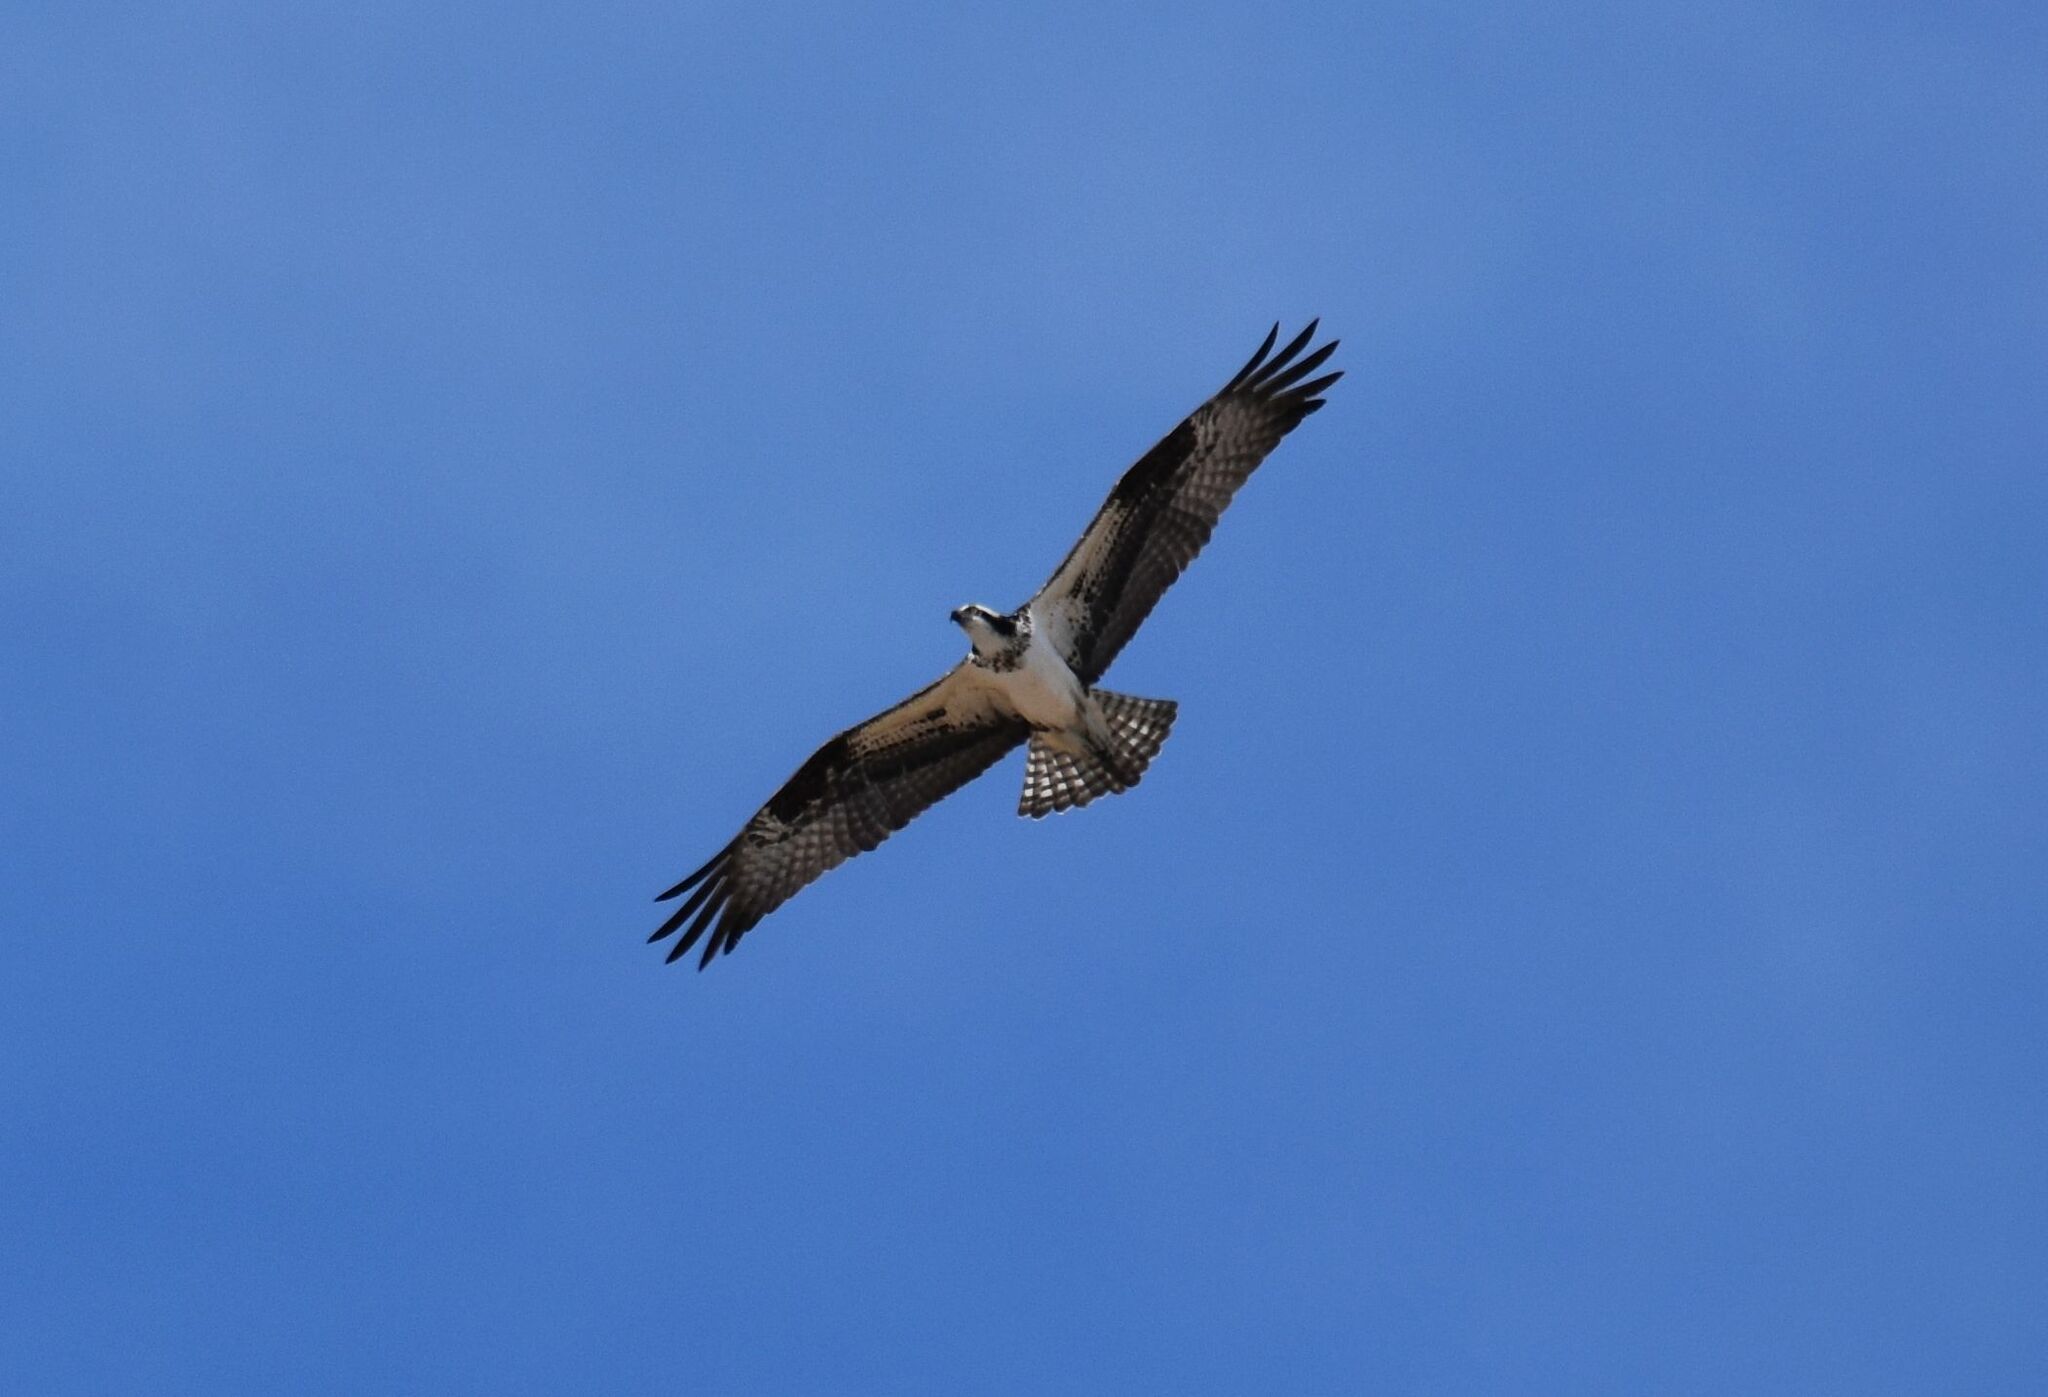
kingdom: Animalia
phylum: Chordata
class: Aves
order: Accipitriformes
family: Pandionidae
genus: Pandion
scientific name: Pandion haliaetus
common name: Osprey
